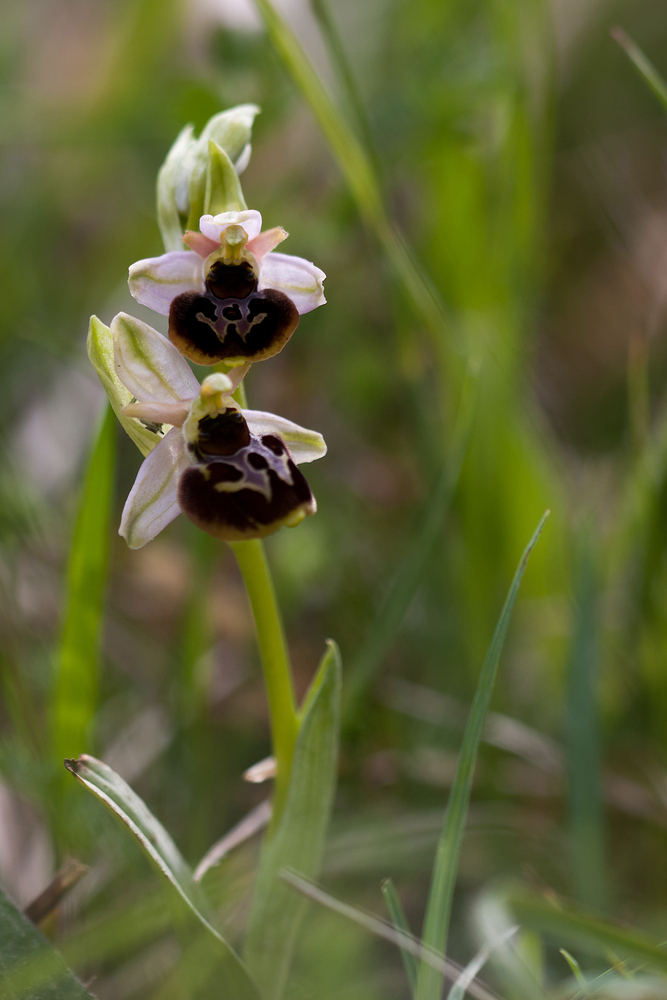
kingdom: Plantae
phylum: Tracheophyta
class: Liliopsida
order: Asparagales
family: Orchidaceae
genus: Ophrys
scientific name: Ophrys arachnitiformis
